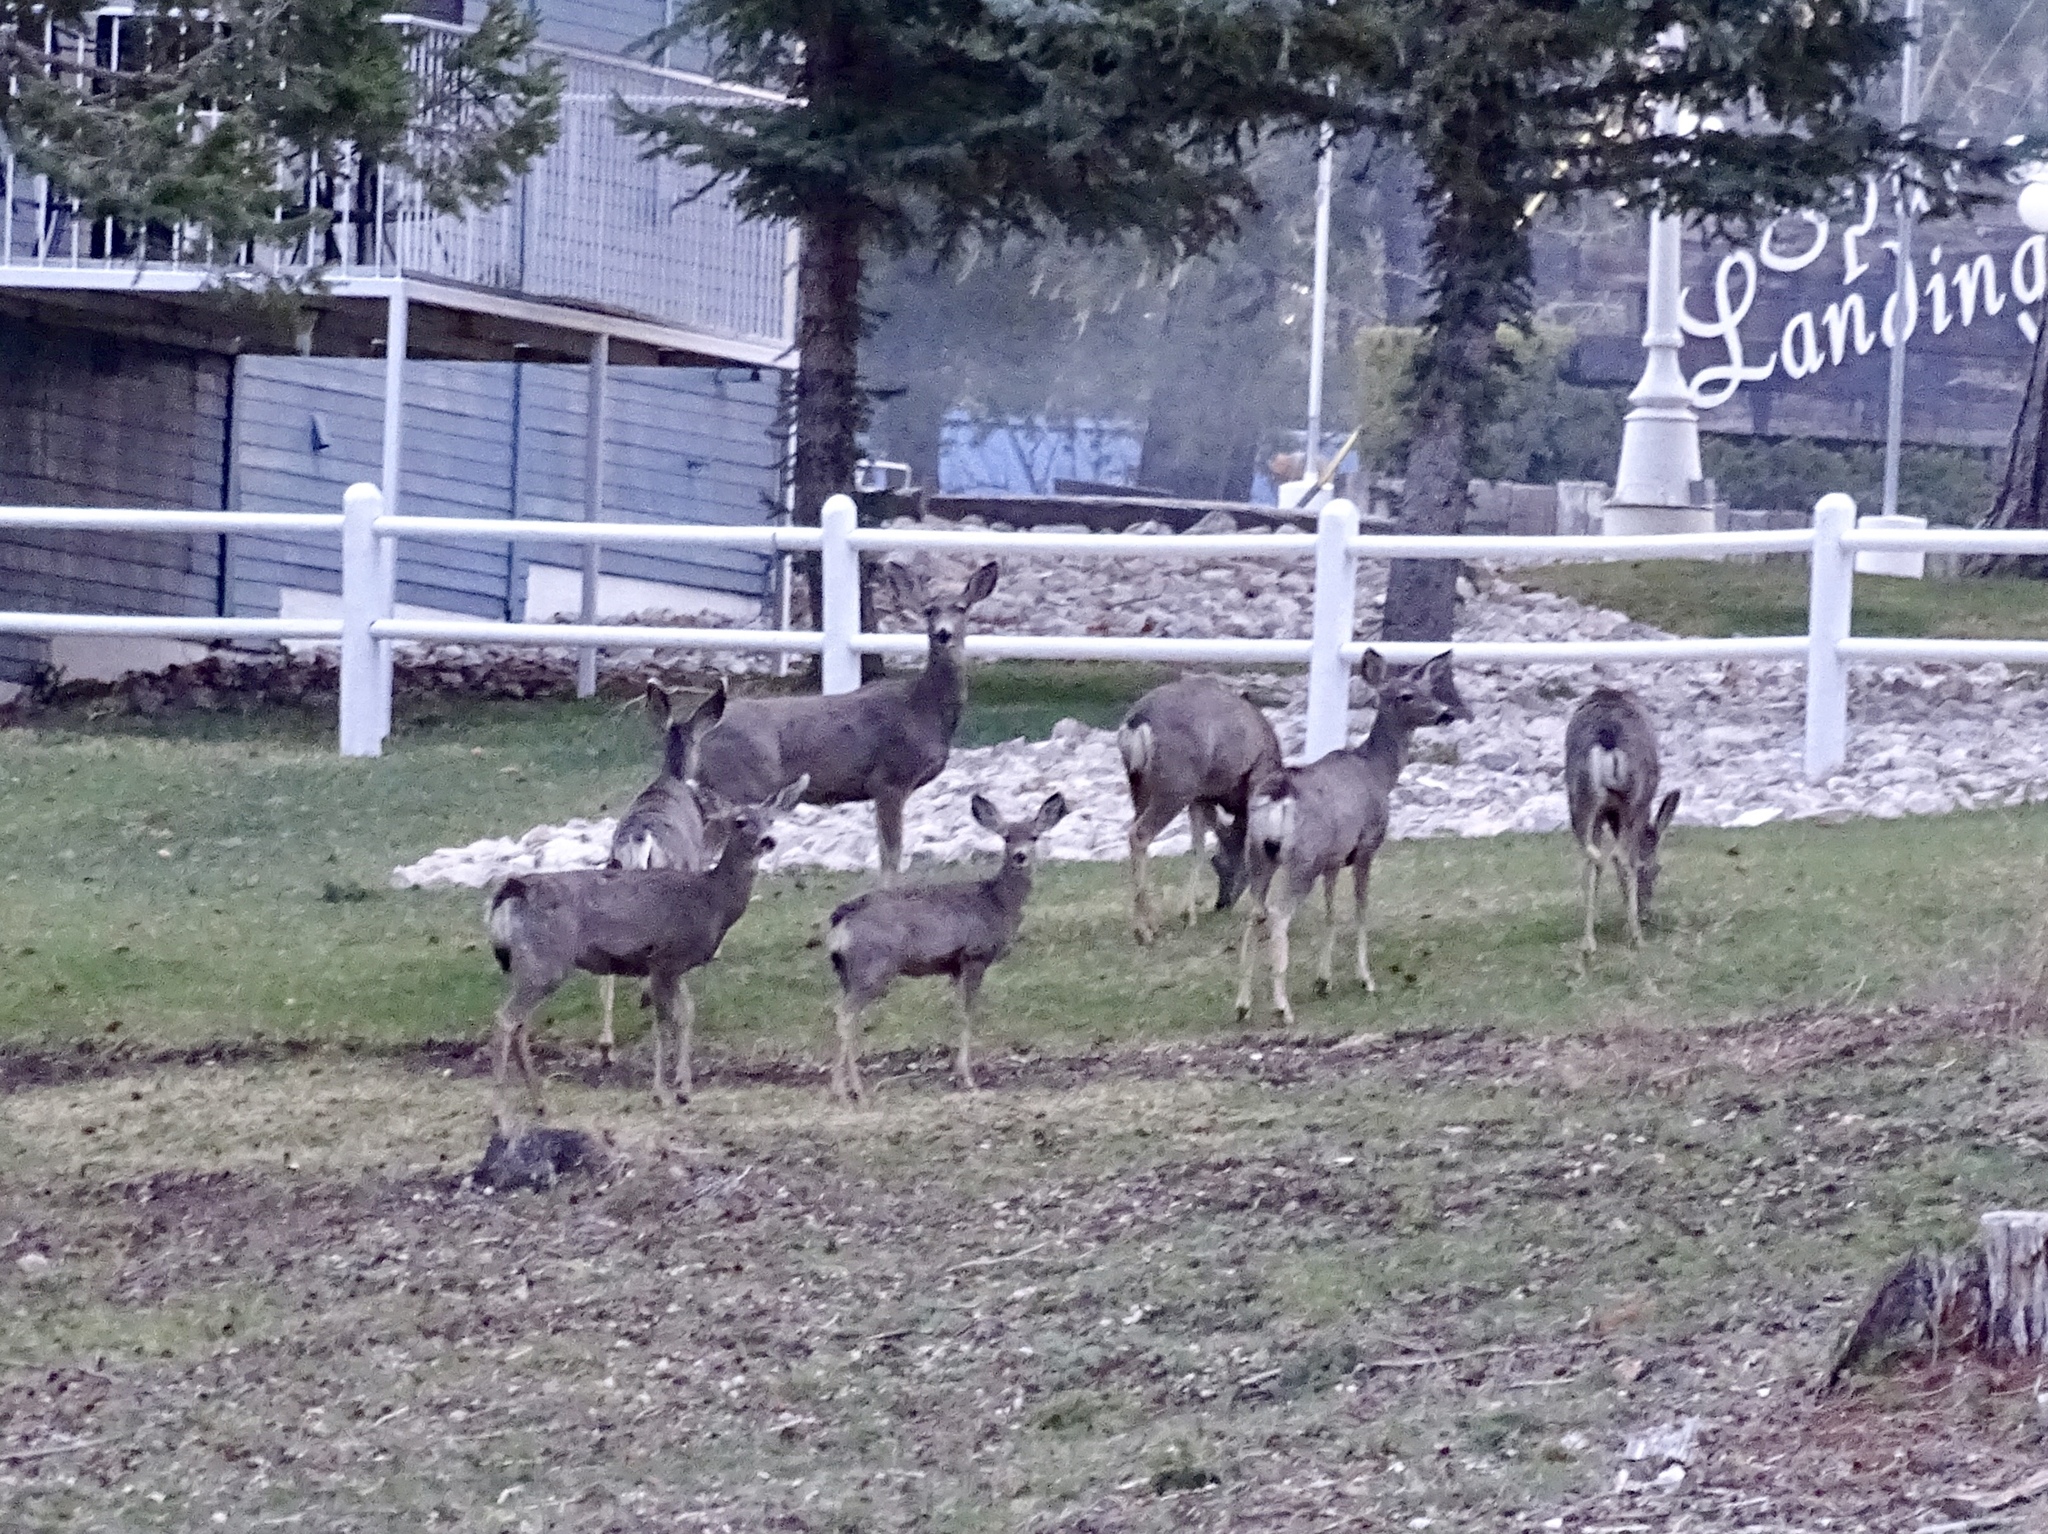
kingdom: Animalia
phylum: Chordata
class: Mammalia
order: Artiodactyla
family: Cervidae
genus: Odocoileus
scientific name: Odocoileus hemionus
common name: Mule deer
